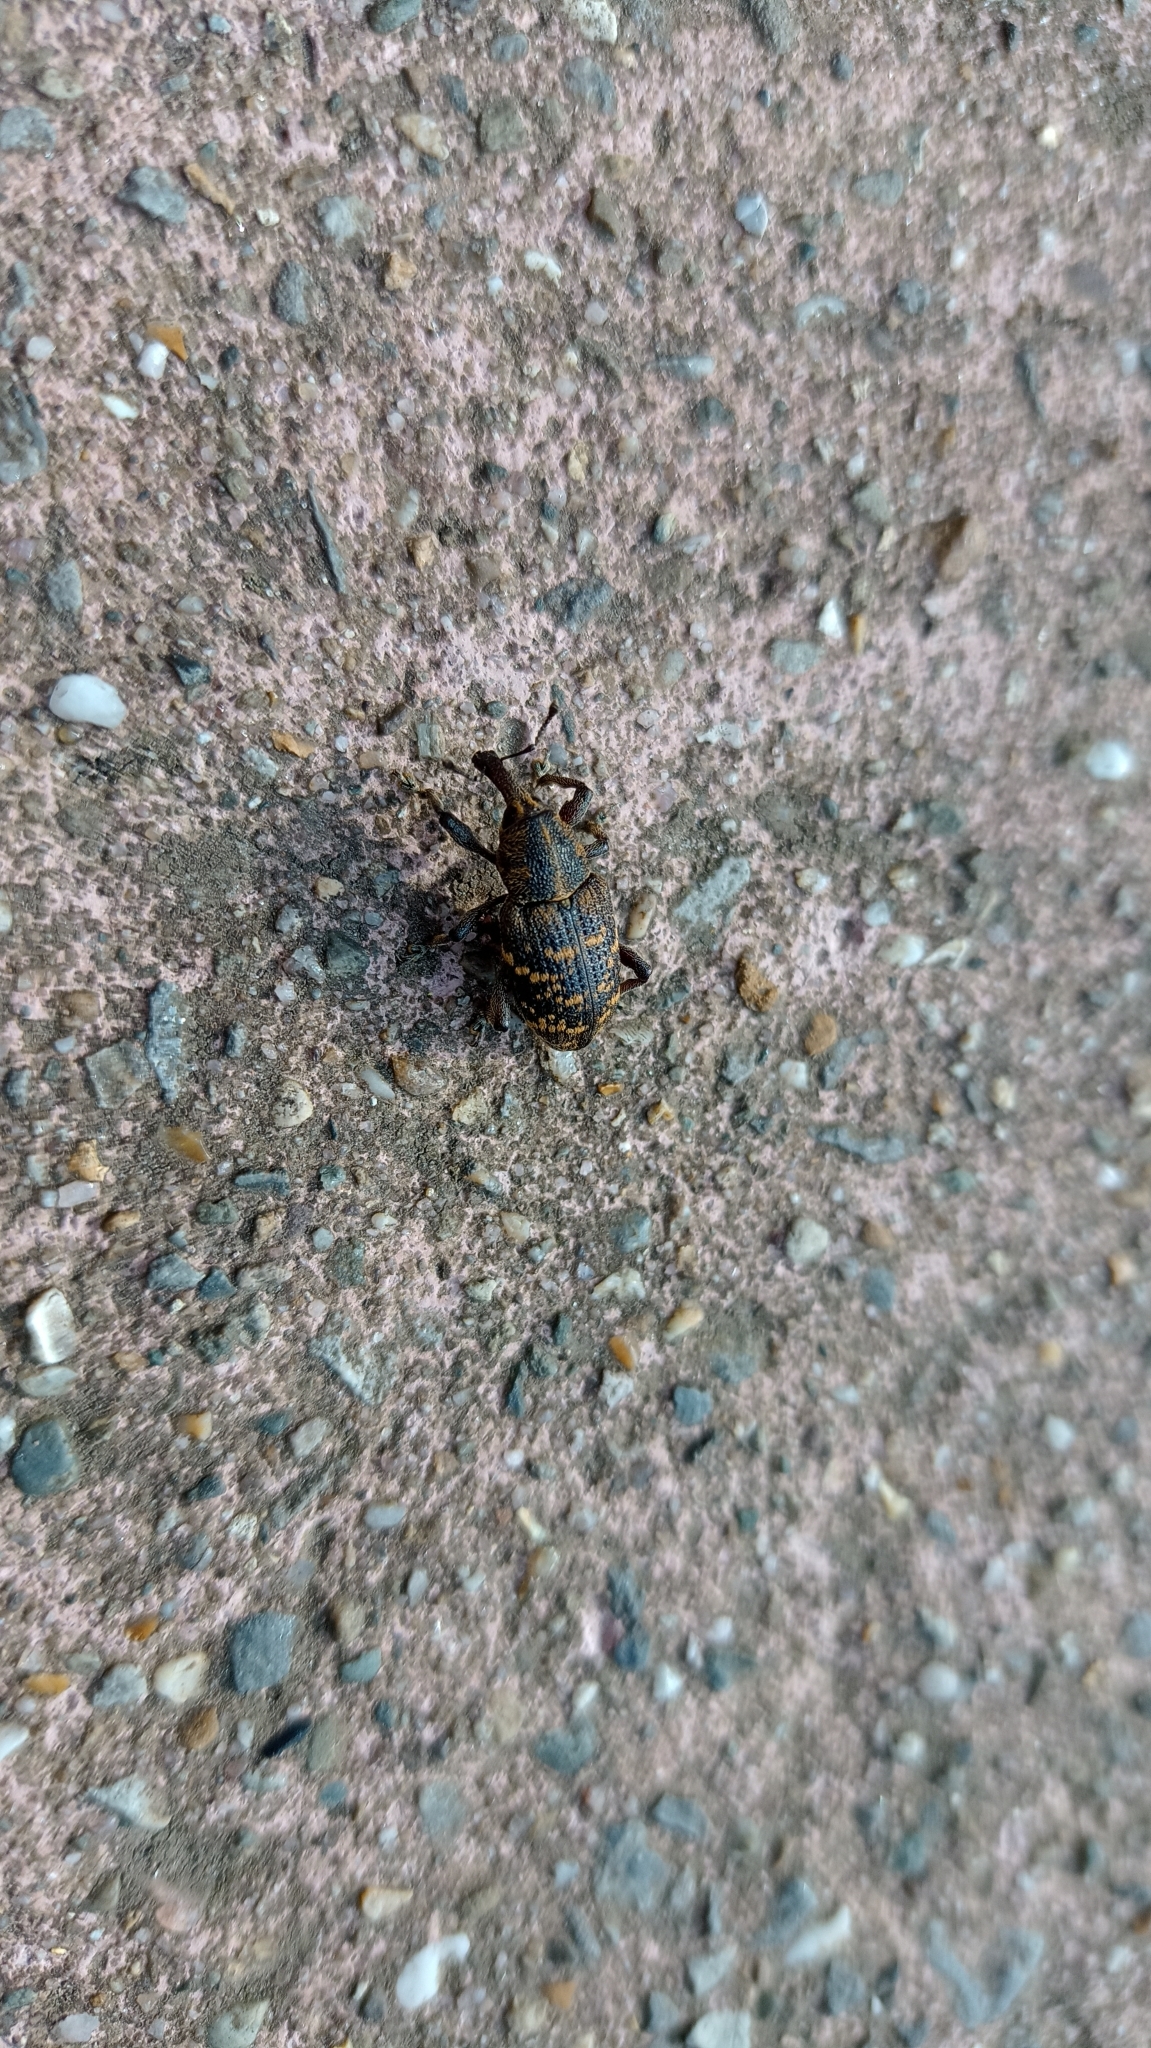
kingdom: Animalia
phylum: Arthropoda
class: Insecta
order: Coleoptera
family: Curculionidae
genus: Hylobius
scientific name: Hylobius abietis
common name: Large pine weevil
